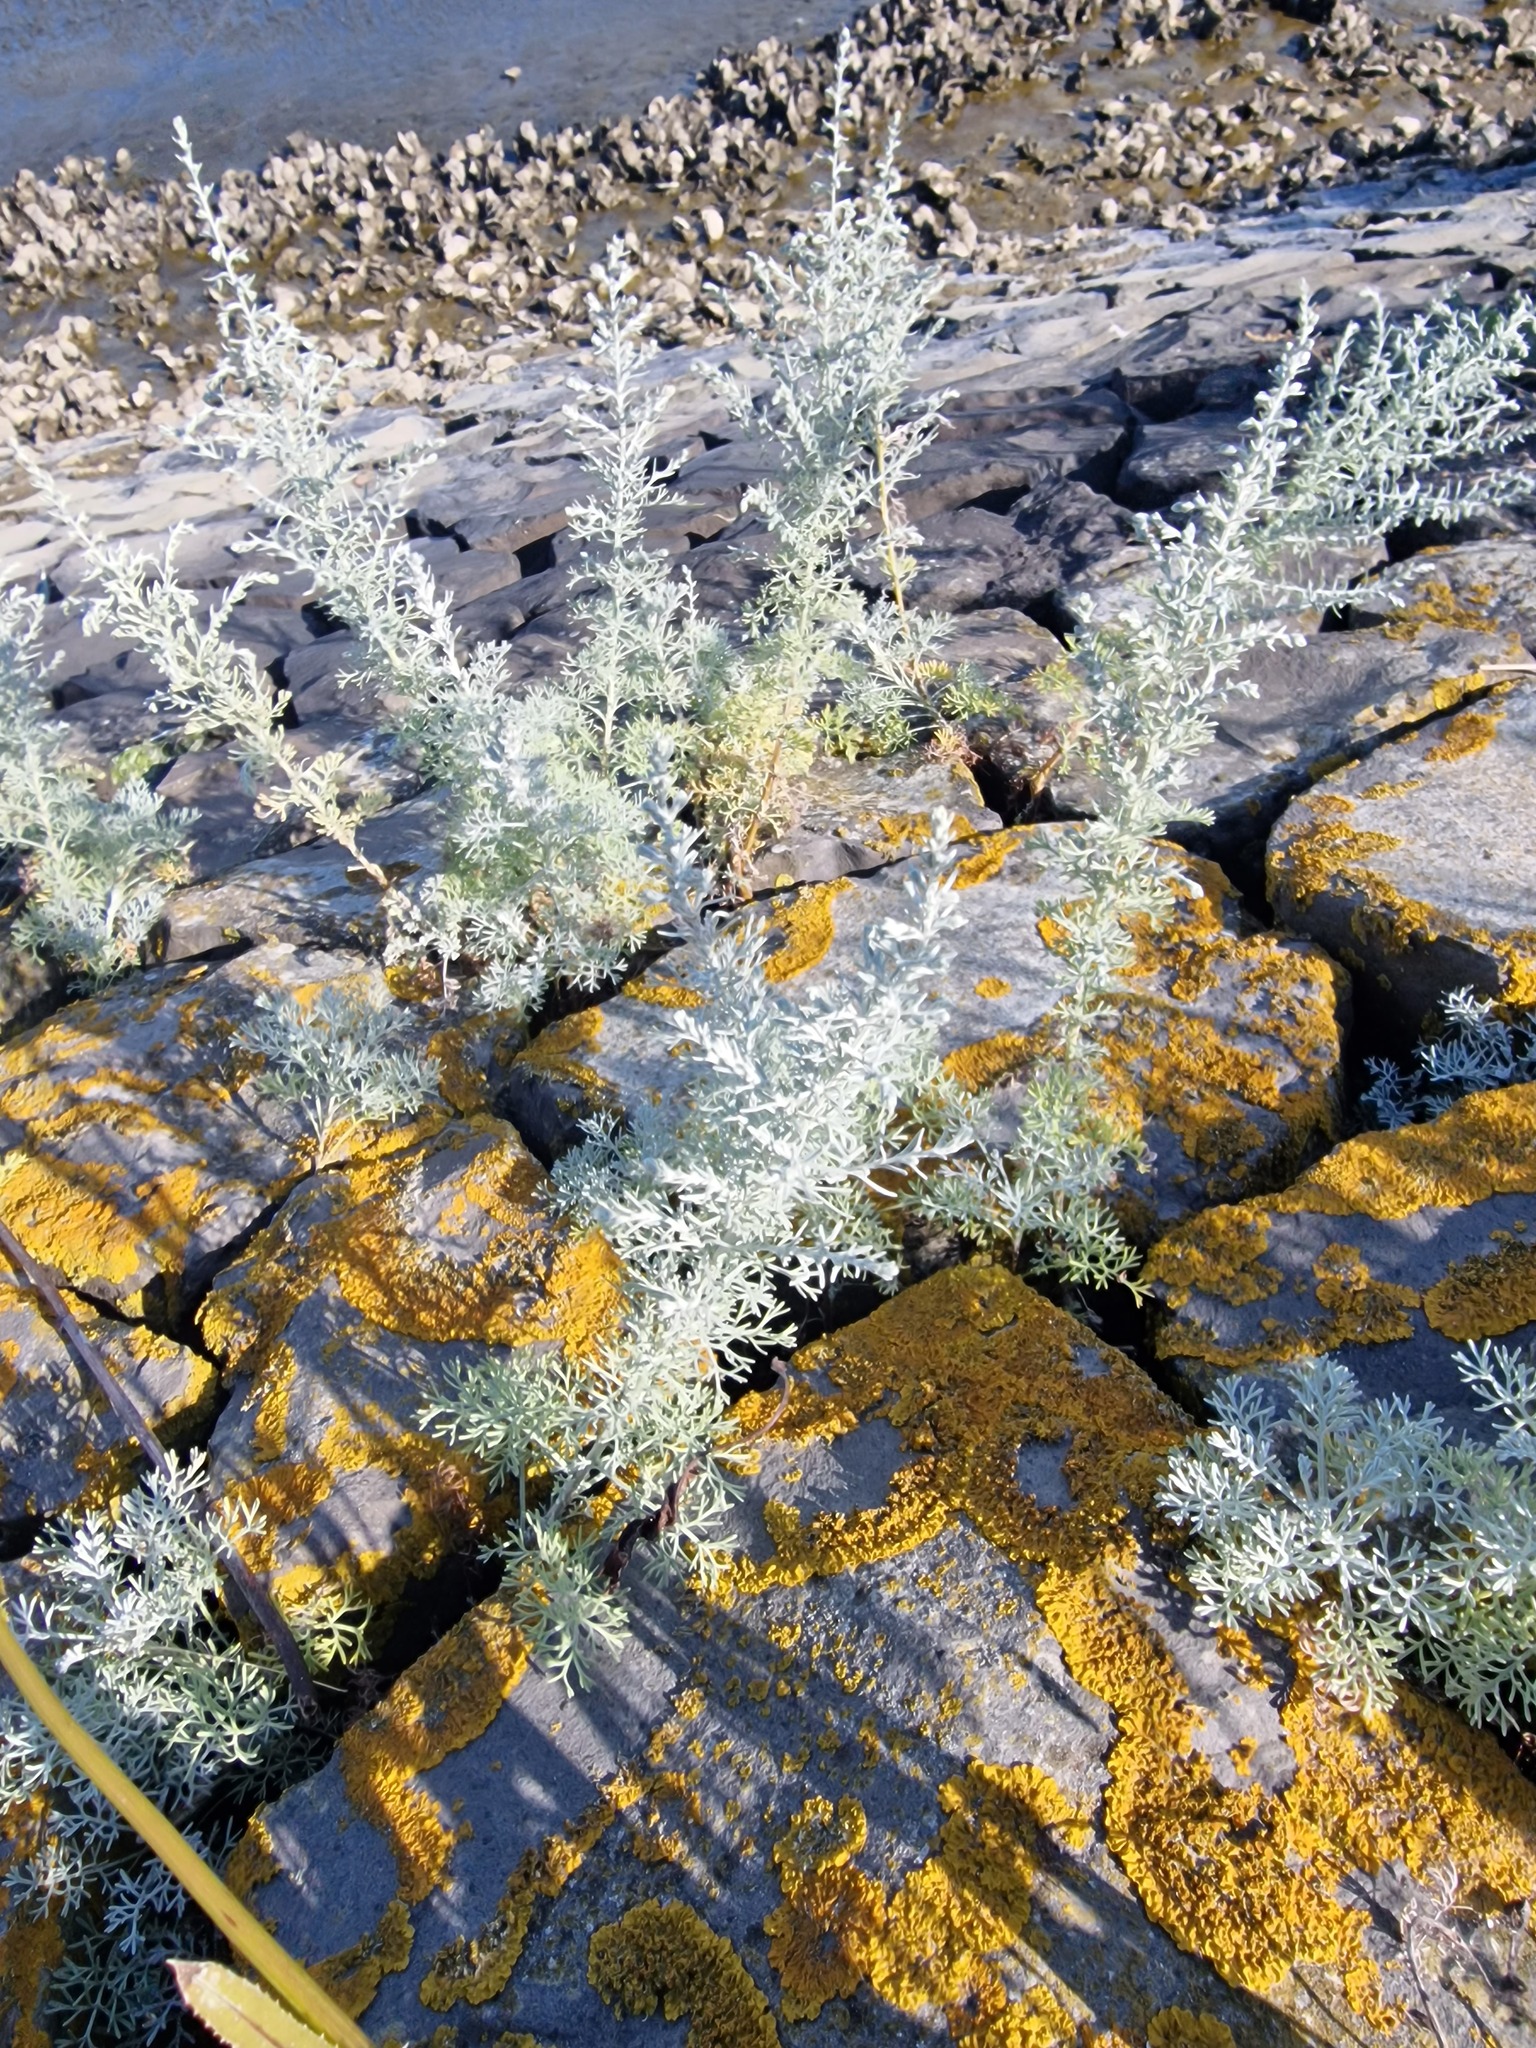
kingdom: Plantae
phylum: Tracheophyta
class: Magnoliopsida
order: Asterales
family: Asteraceae
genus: Artemisia
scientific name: Artemisia maritima
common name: Wormseed
